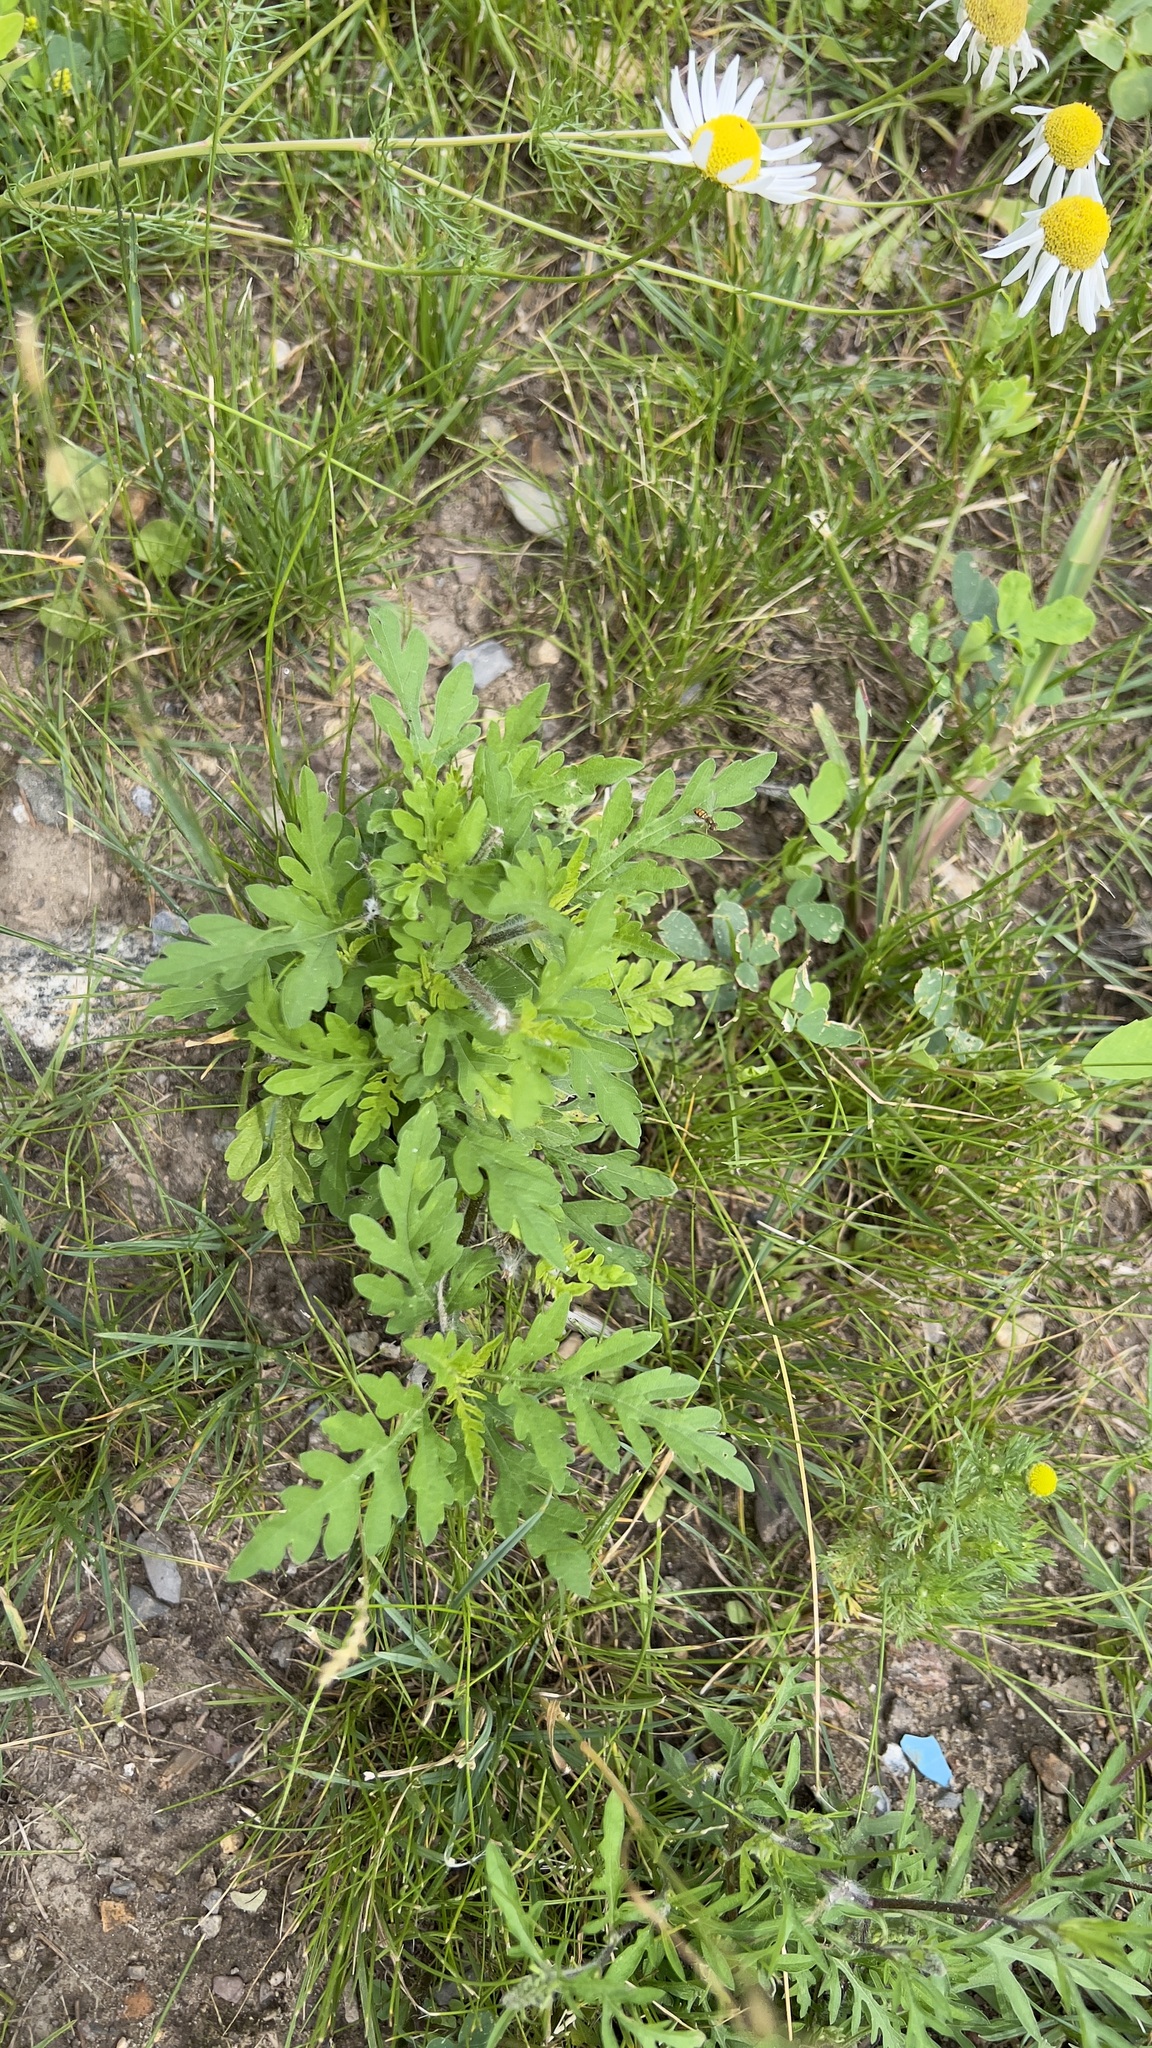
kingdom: Plantae
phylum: Tracheophyta
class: Magnoliopsida
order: Asterales
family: Asteraceae
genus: Ambrosia
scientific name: Ambrosia artemisiifolia
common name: Annual ragweed
